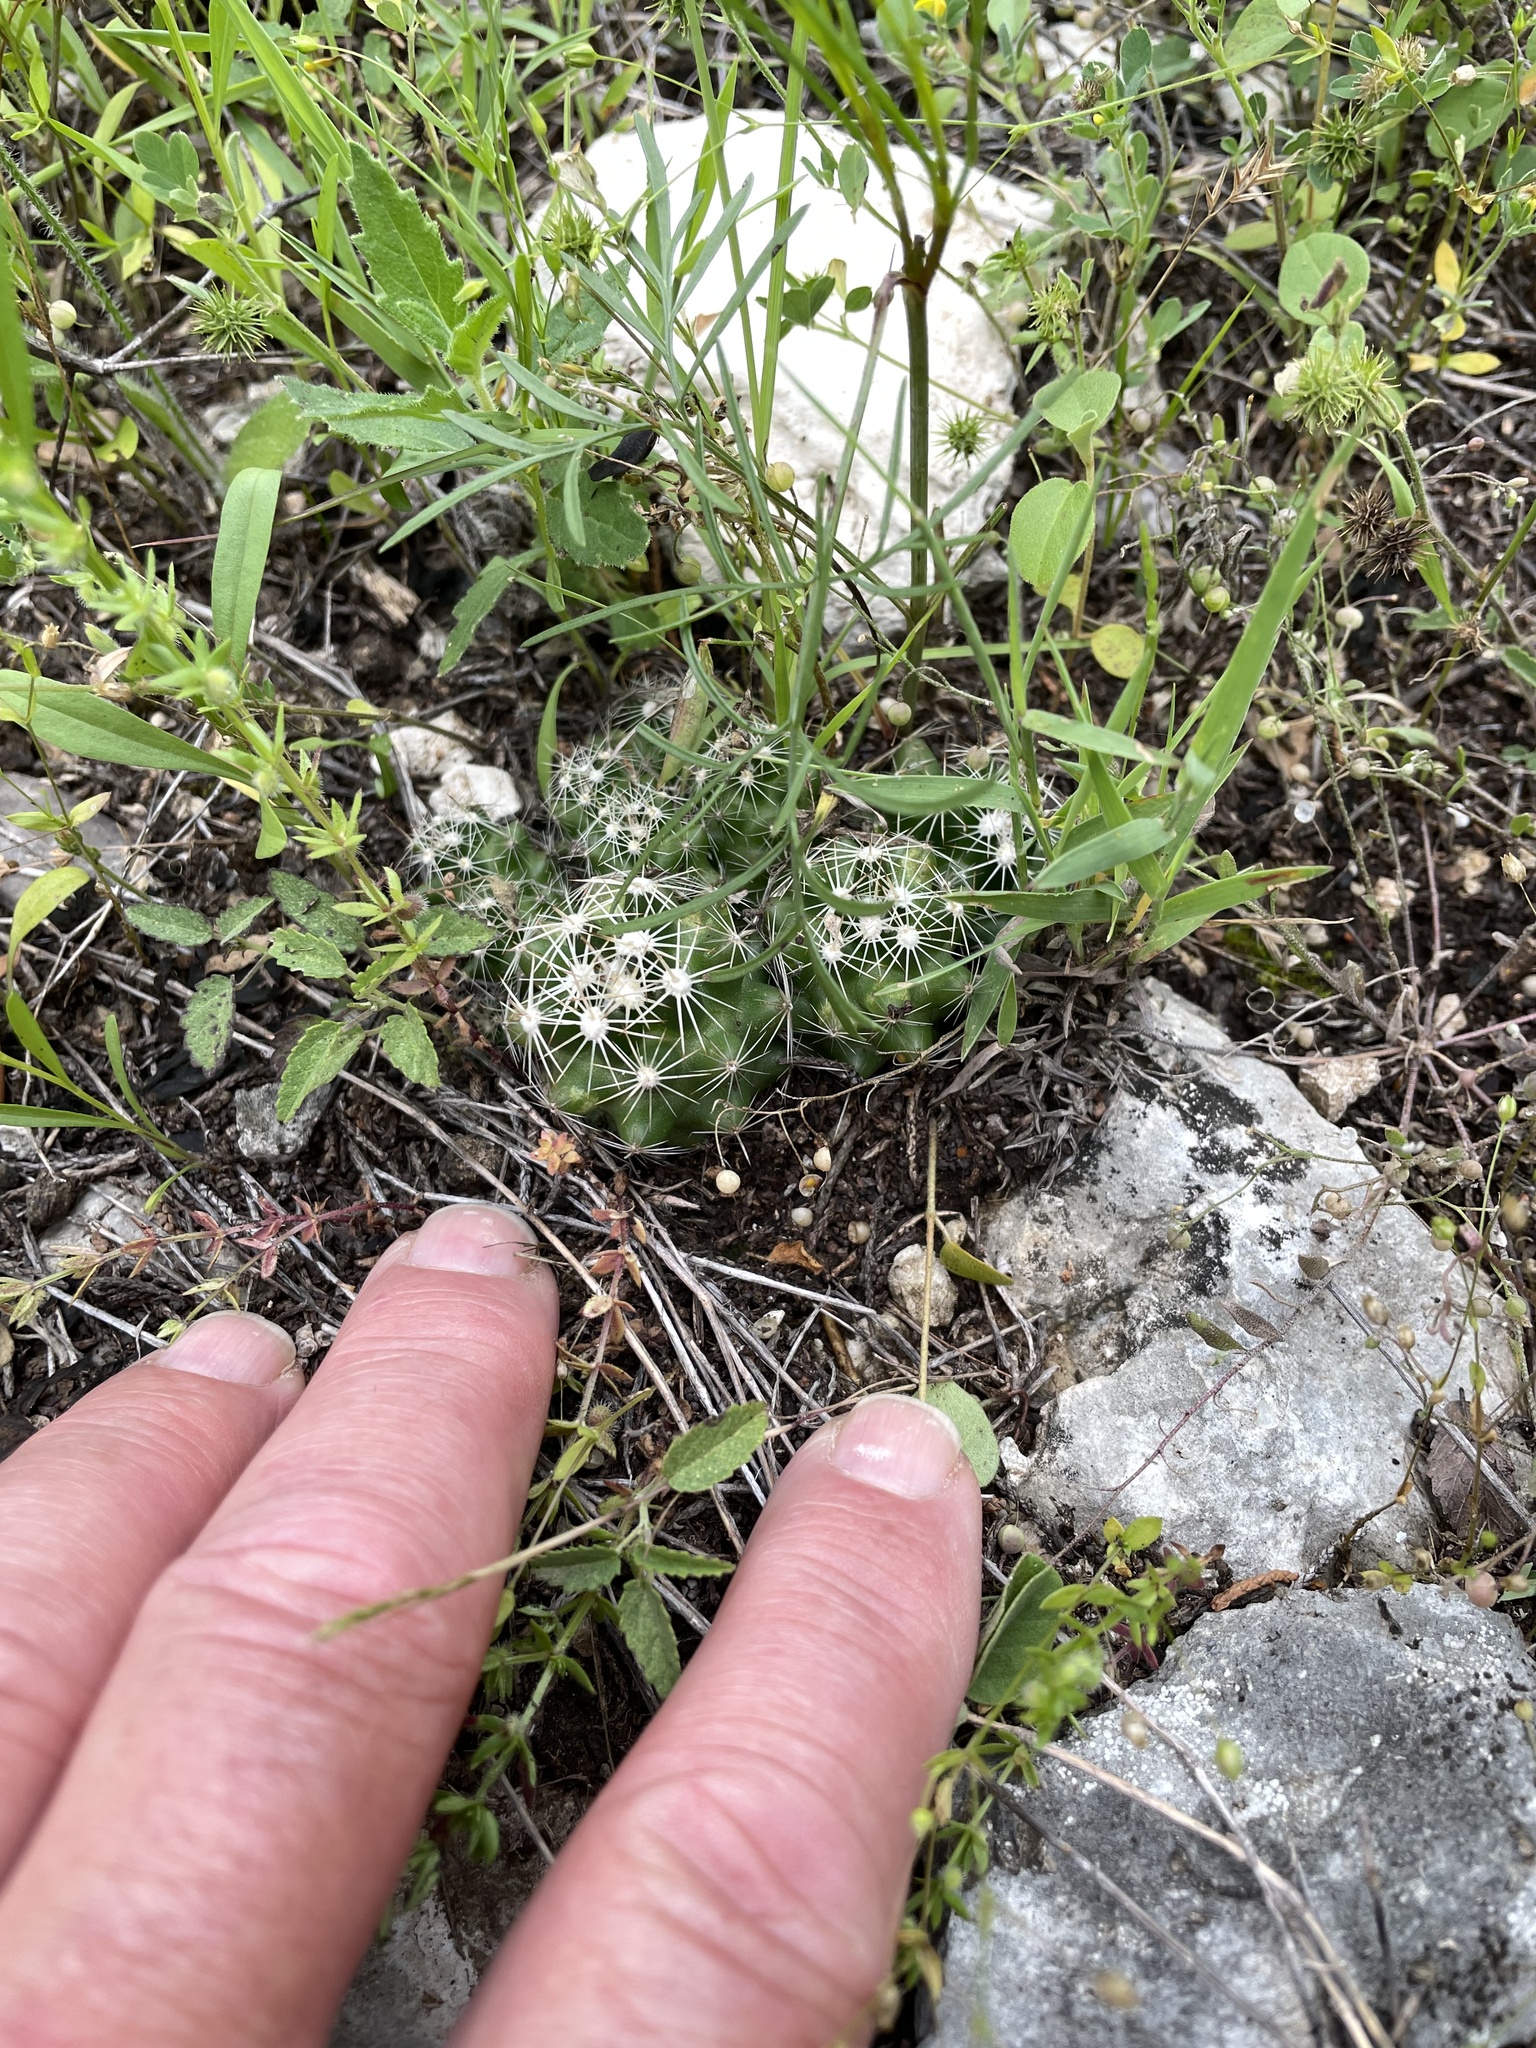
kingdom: Plantae
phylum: Tracheophyta
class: Magnoliopsida
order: Caryophyllales
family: Cactaceae
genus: Pelecyphora
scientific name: Pelecyphora missouriensis
